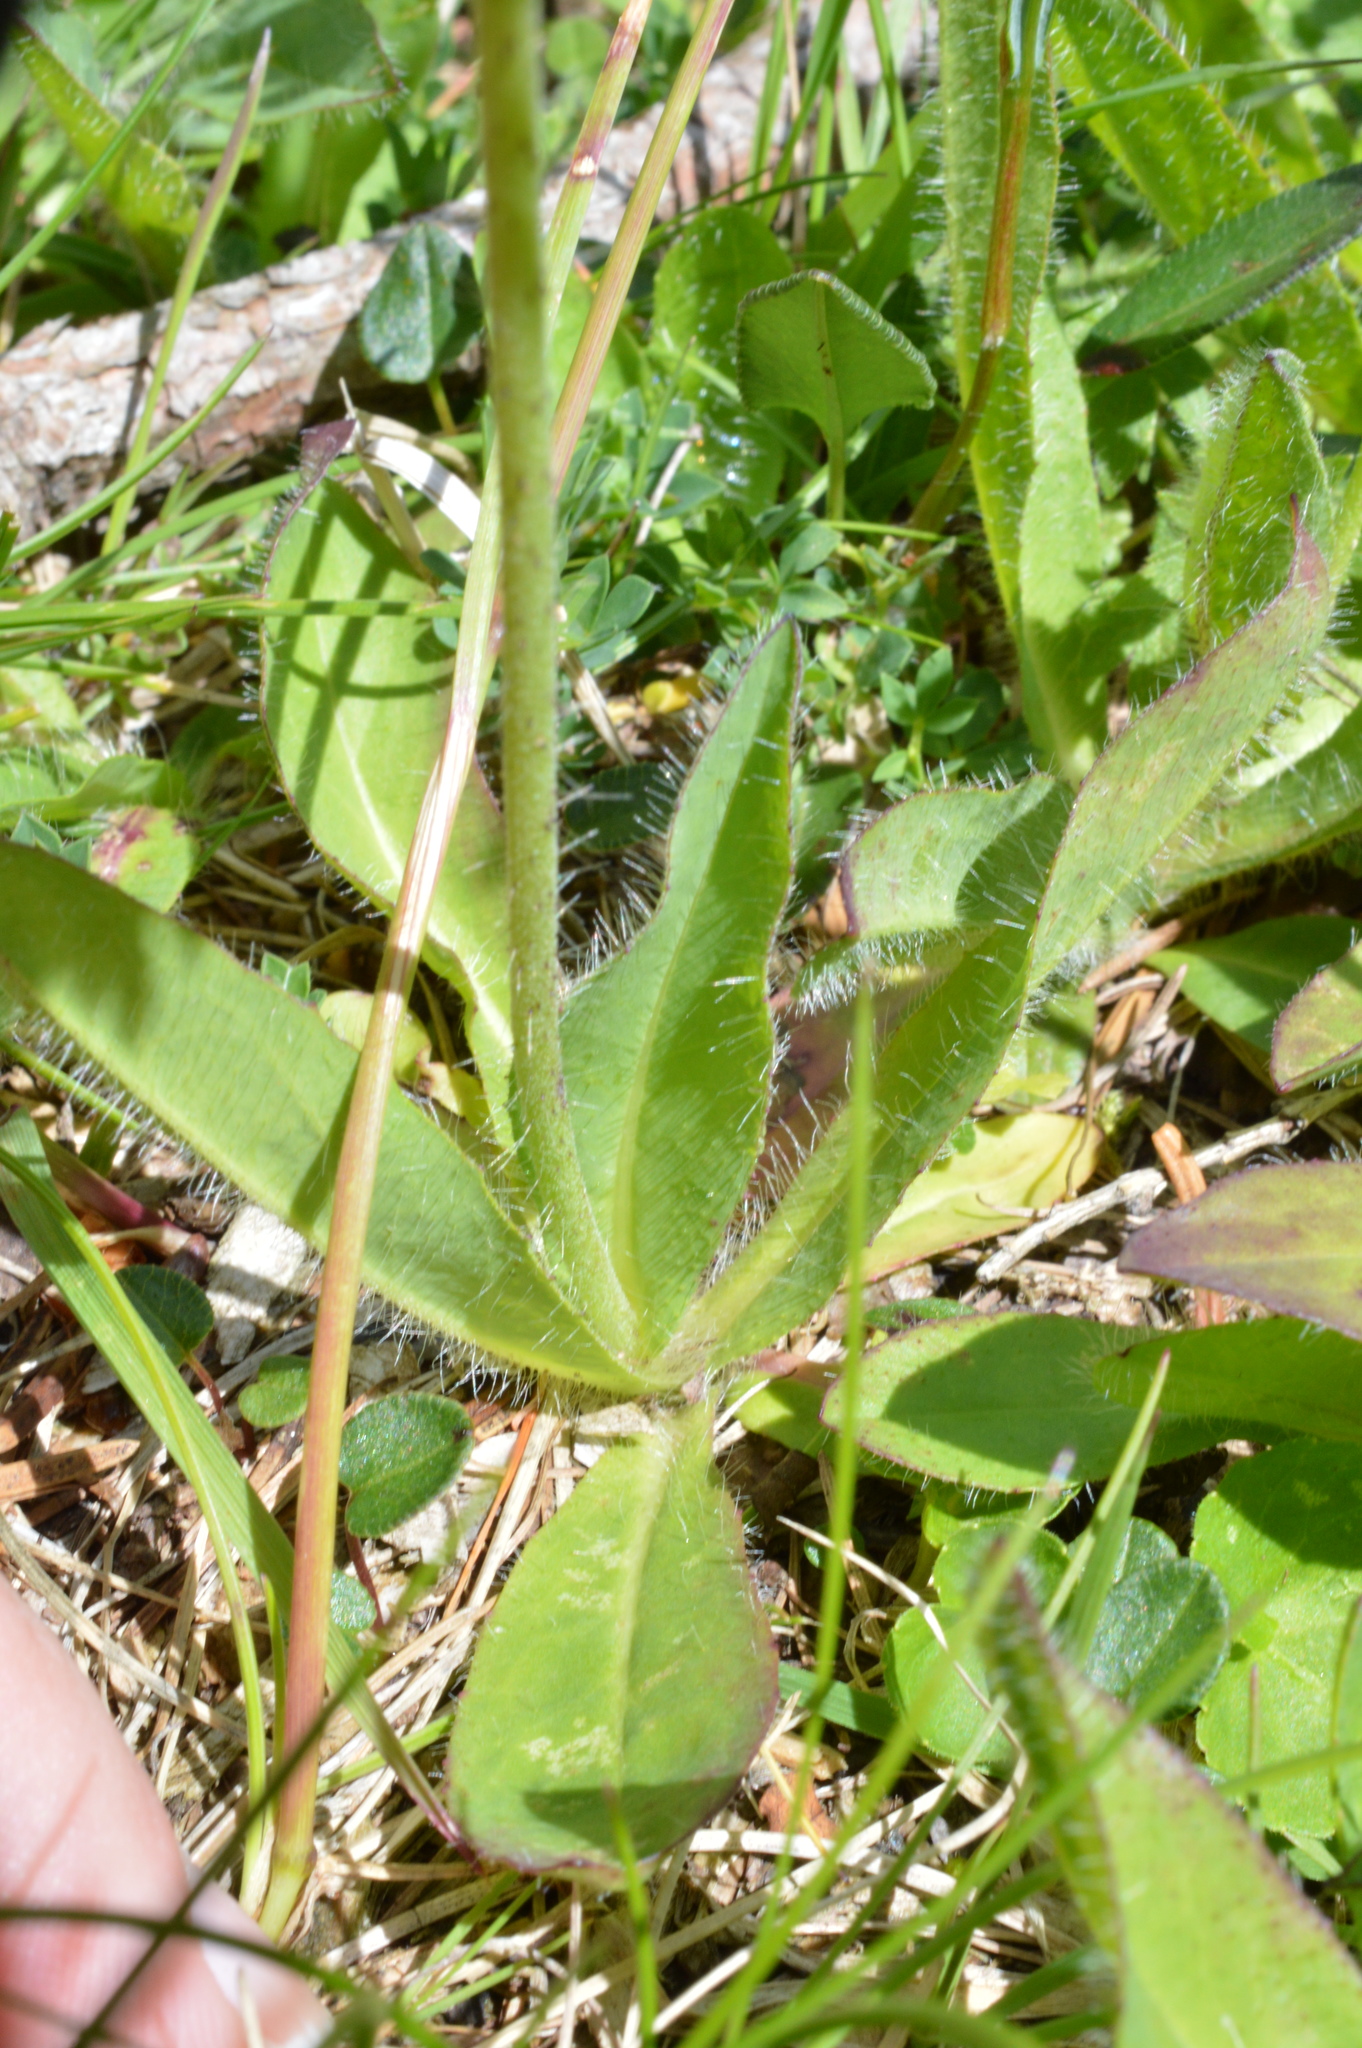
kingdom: Plantae
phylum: Tracheophyta
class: Magnoliopsida
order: Asterales
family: Asteraceae
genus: Pilosella
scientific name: Pilosella aurantiaca
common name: Fox-and-cubs
